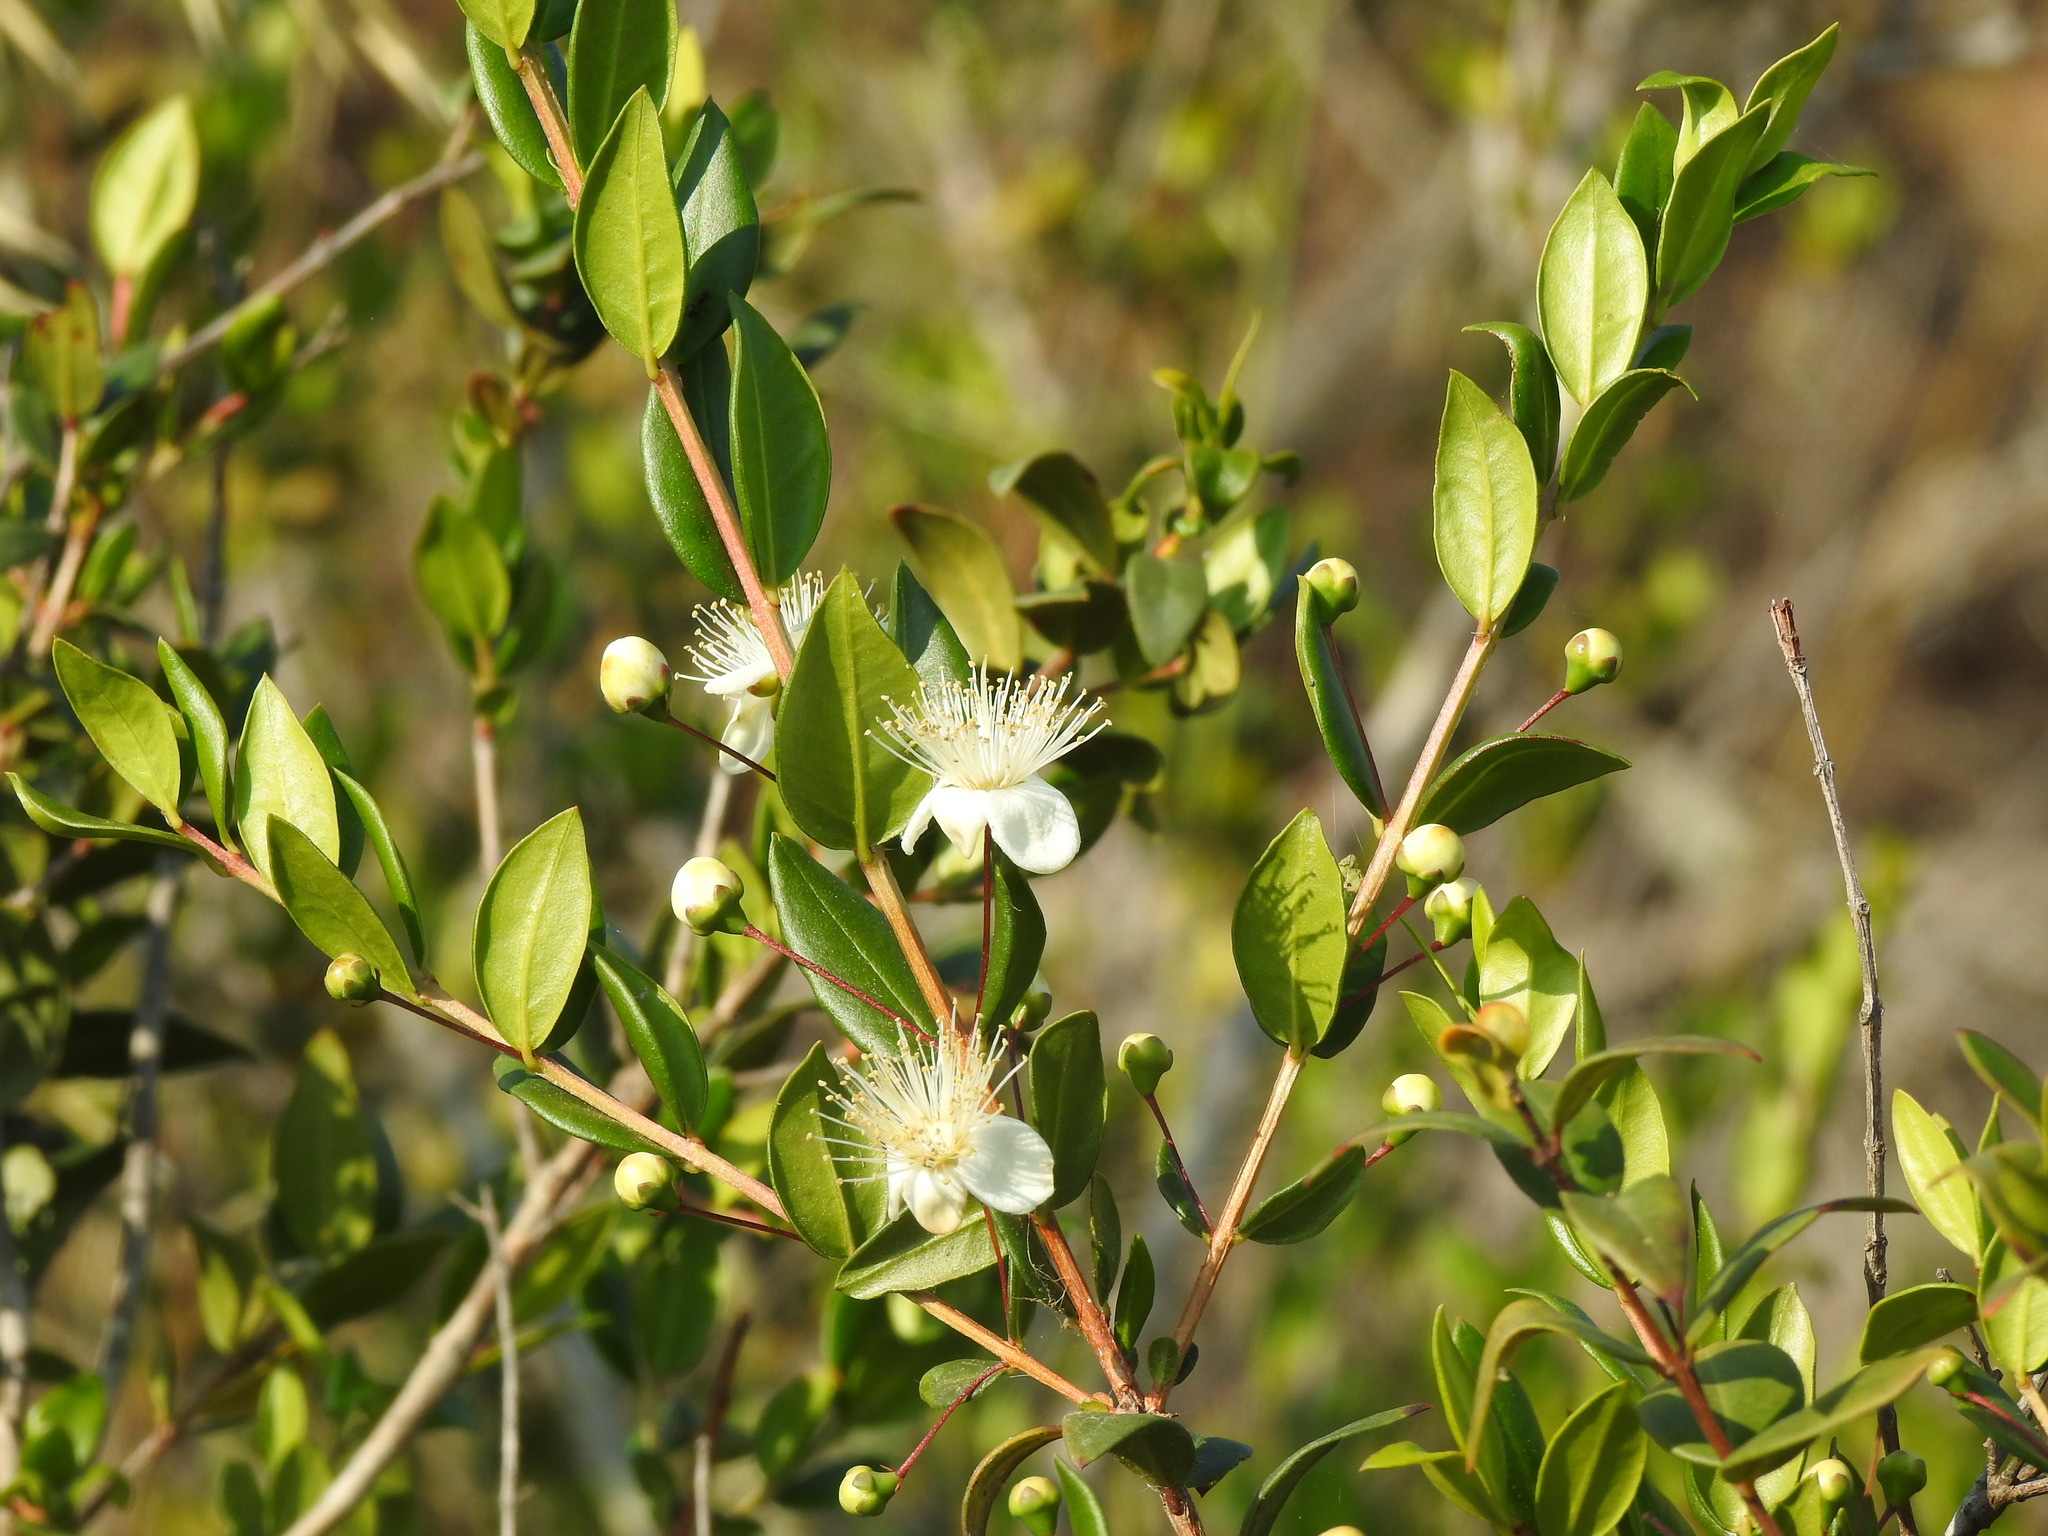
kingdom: Plantae
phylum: Tracheophyta
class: Magnoliopsida
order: Myrtales
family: Myrtaceae
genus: Myrtus
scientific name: Myrtus communis
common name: Myrtle
